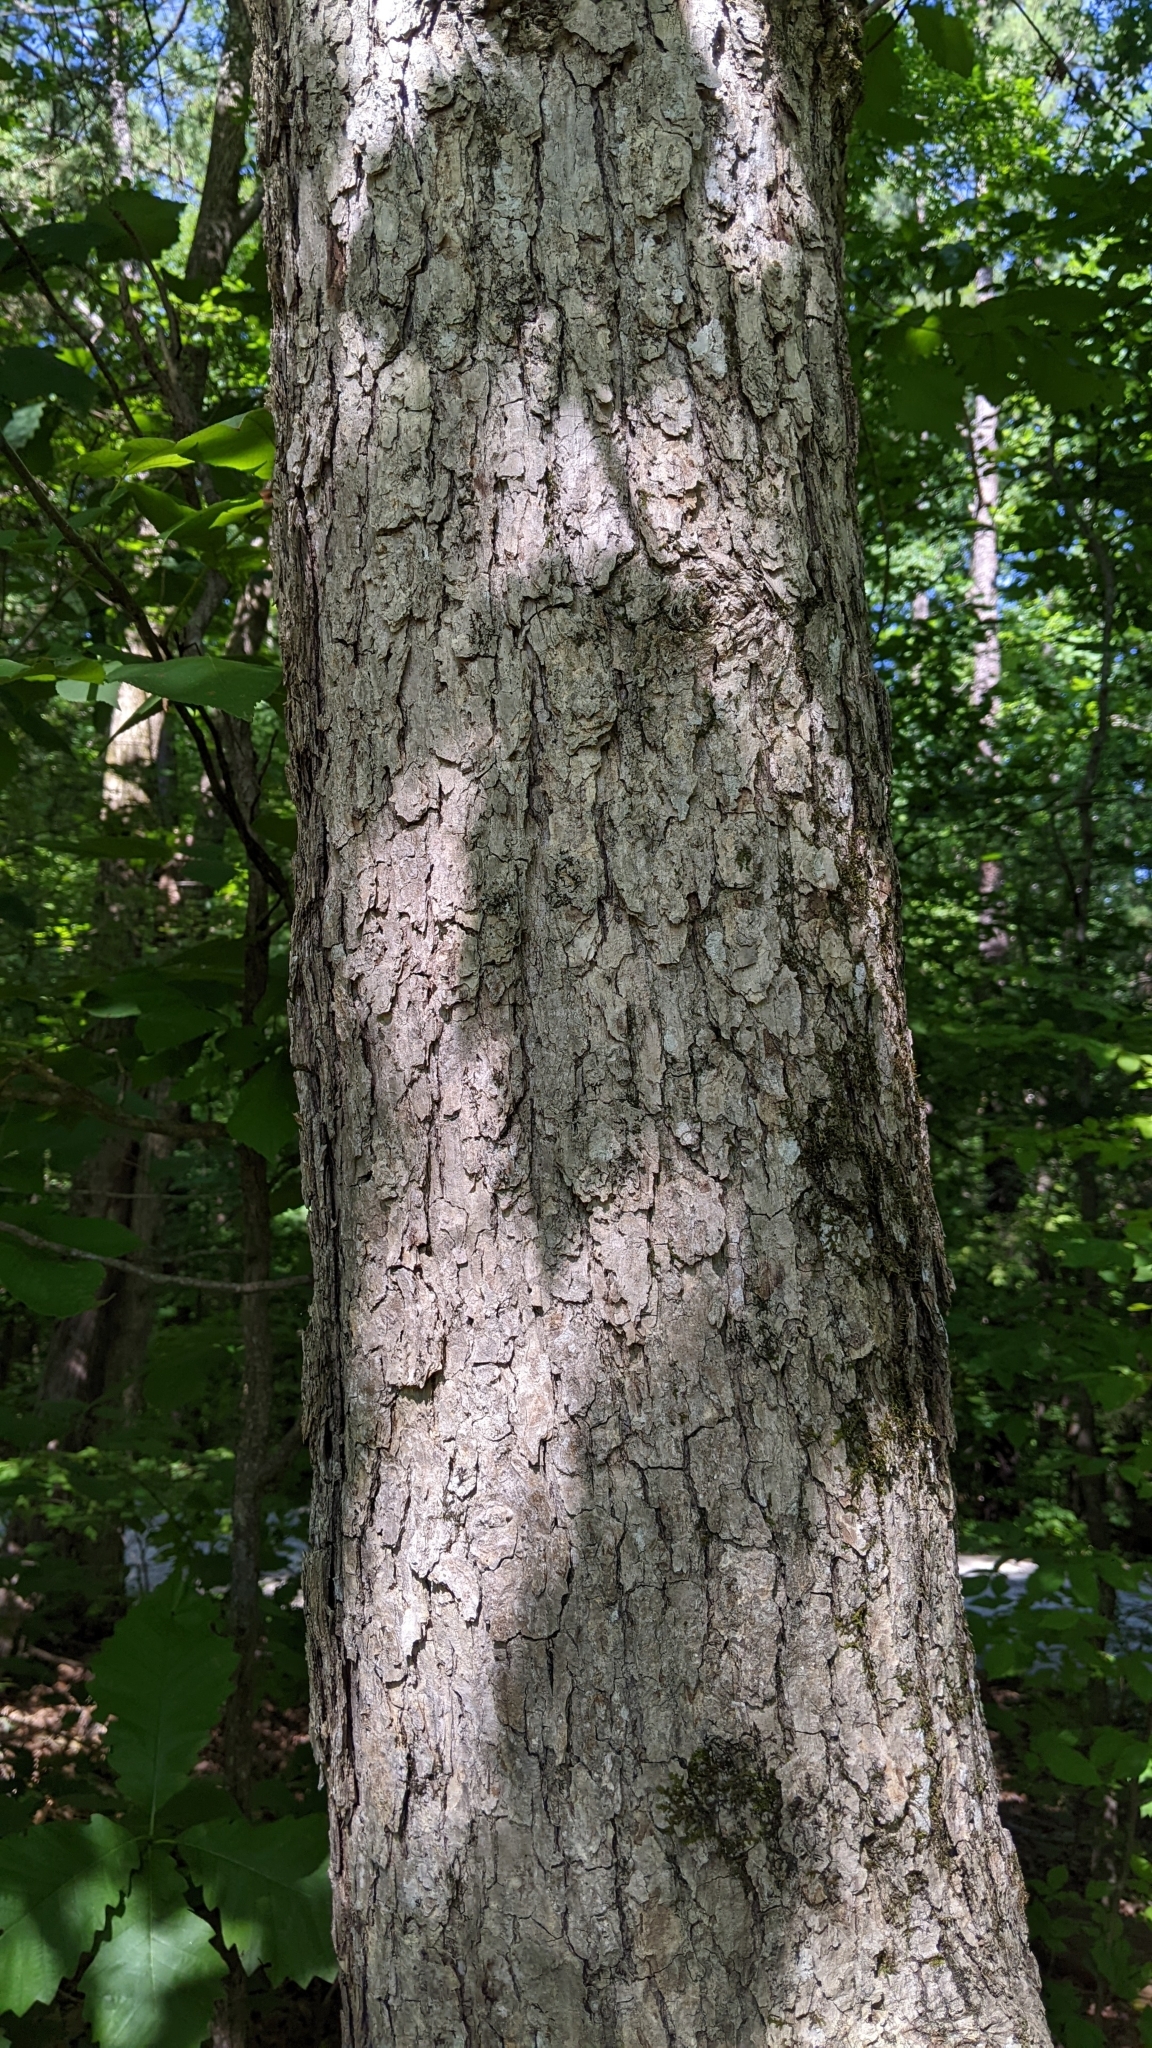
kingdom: Plantae
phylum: Tracheophyta
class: Magnoliopsida
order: Fagales
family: Fagaceae
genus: Quercus
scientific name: Quercus muehlenbergii
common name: Chinkapin oak
